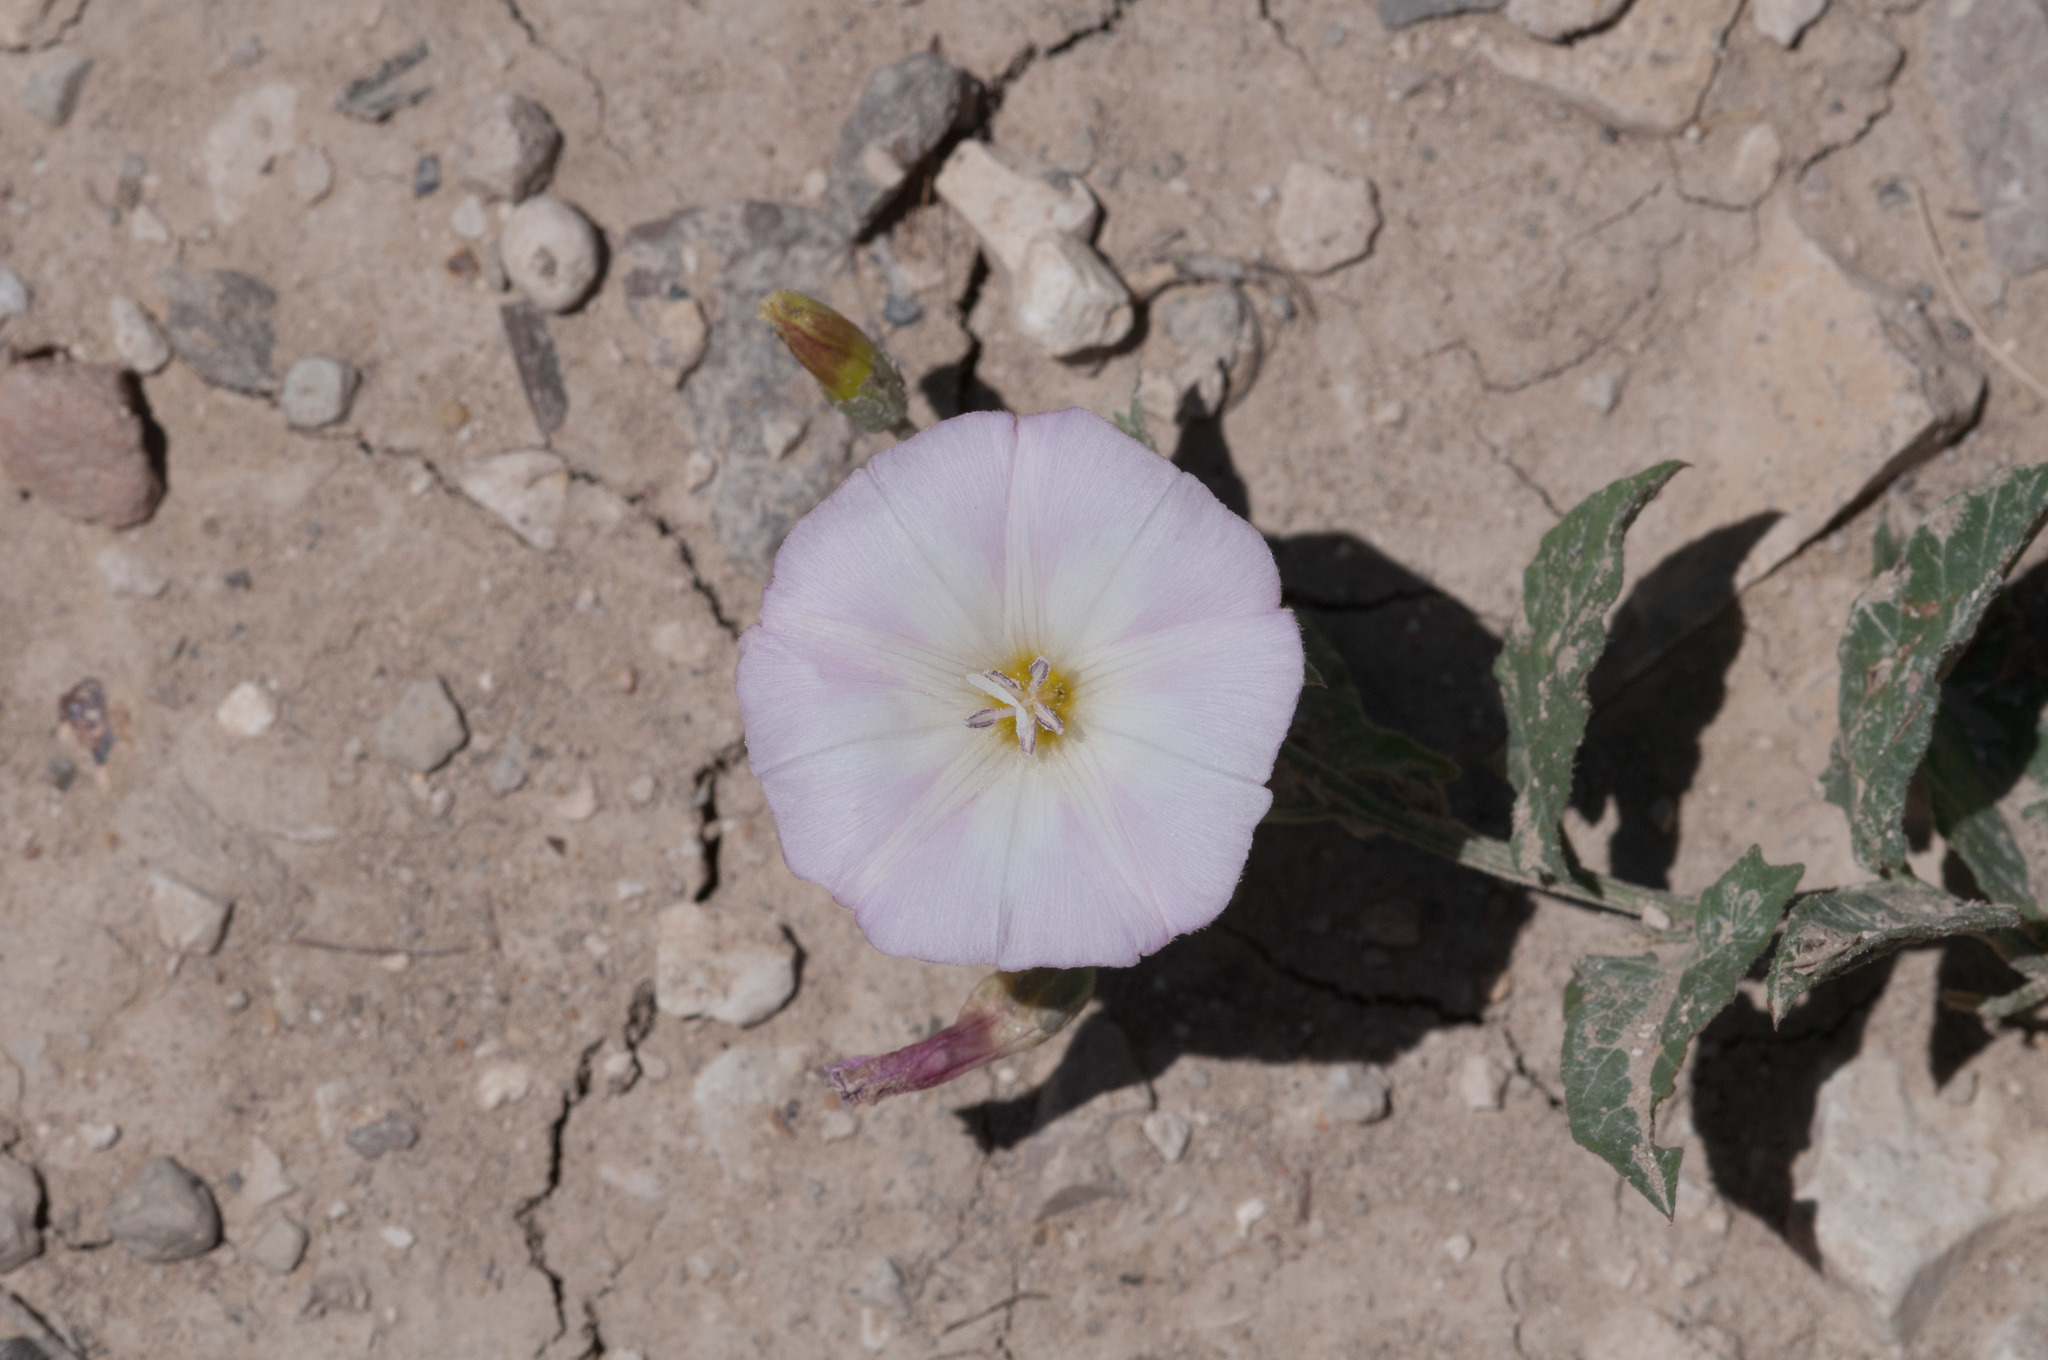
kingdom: Plantae
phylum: Tracheophyta
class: Magnoliopsida
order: Solanales
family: Convolvulaceae
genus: Convolvulus
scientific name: Convolvulus arvensis
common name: Field bindweed
